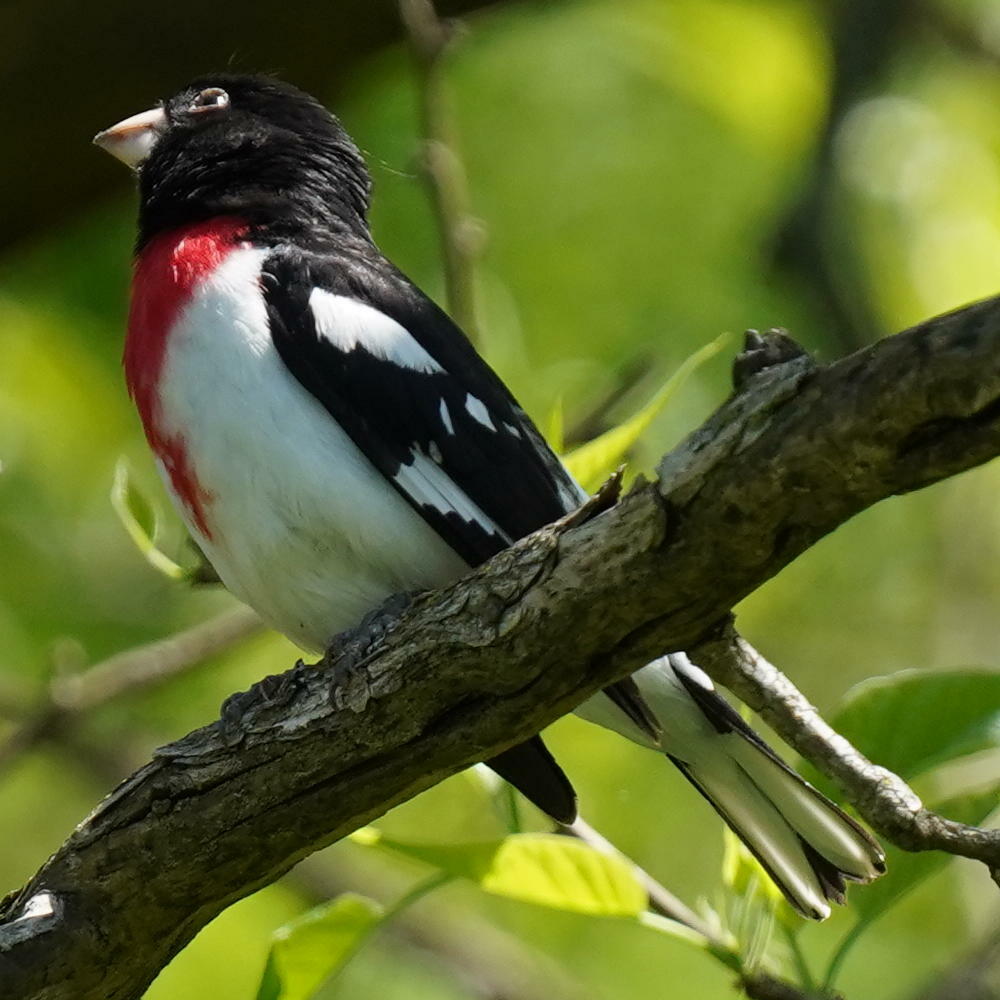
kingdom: Animalia
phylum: Chordata
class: Aves
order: Passeriformes
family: Cardinalidae
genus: Pheucticus
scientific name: Pheucticus ludovicianus
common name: Rose-breasted grosbeak
